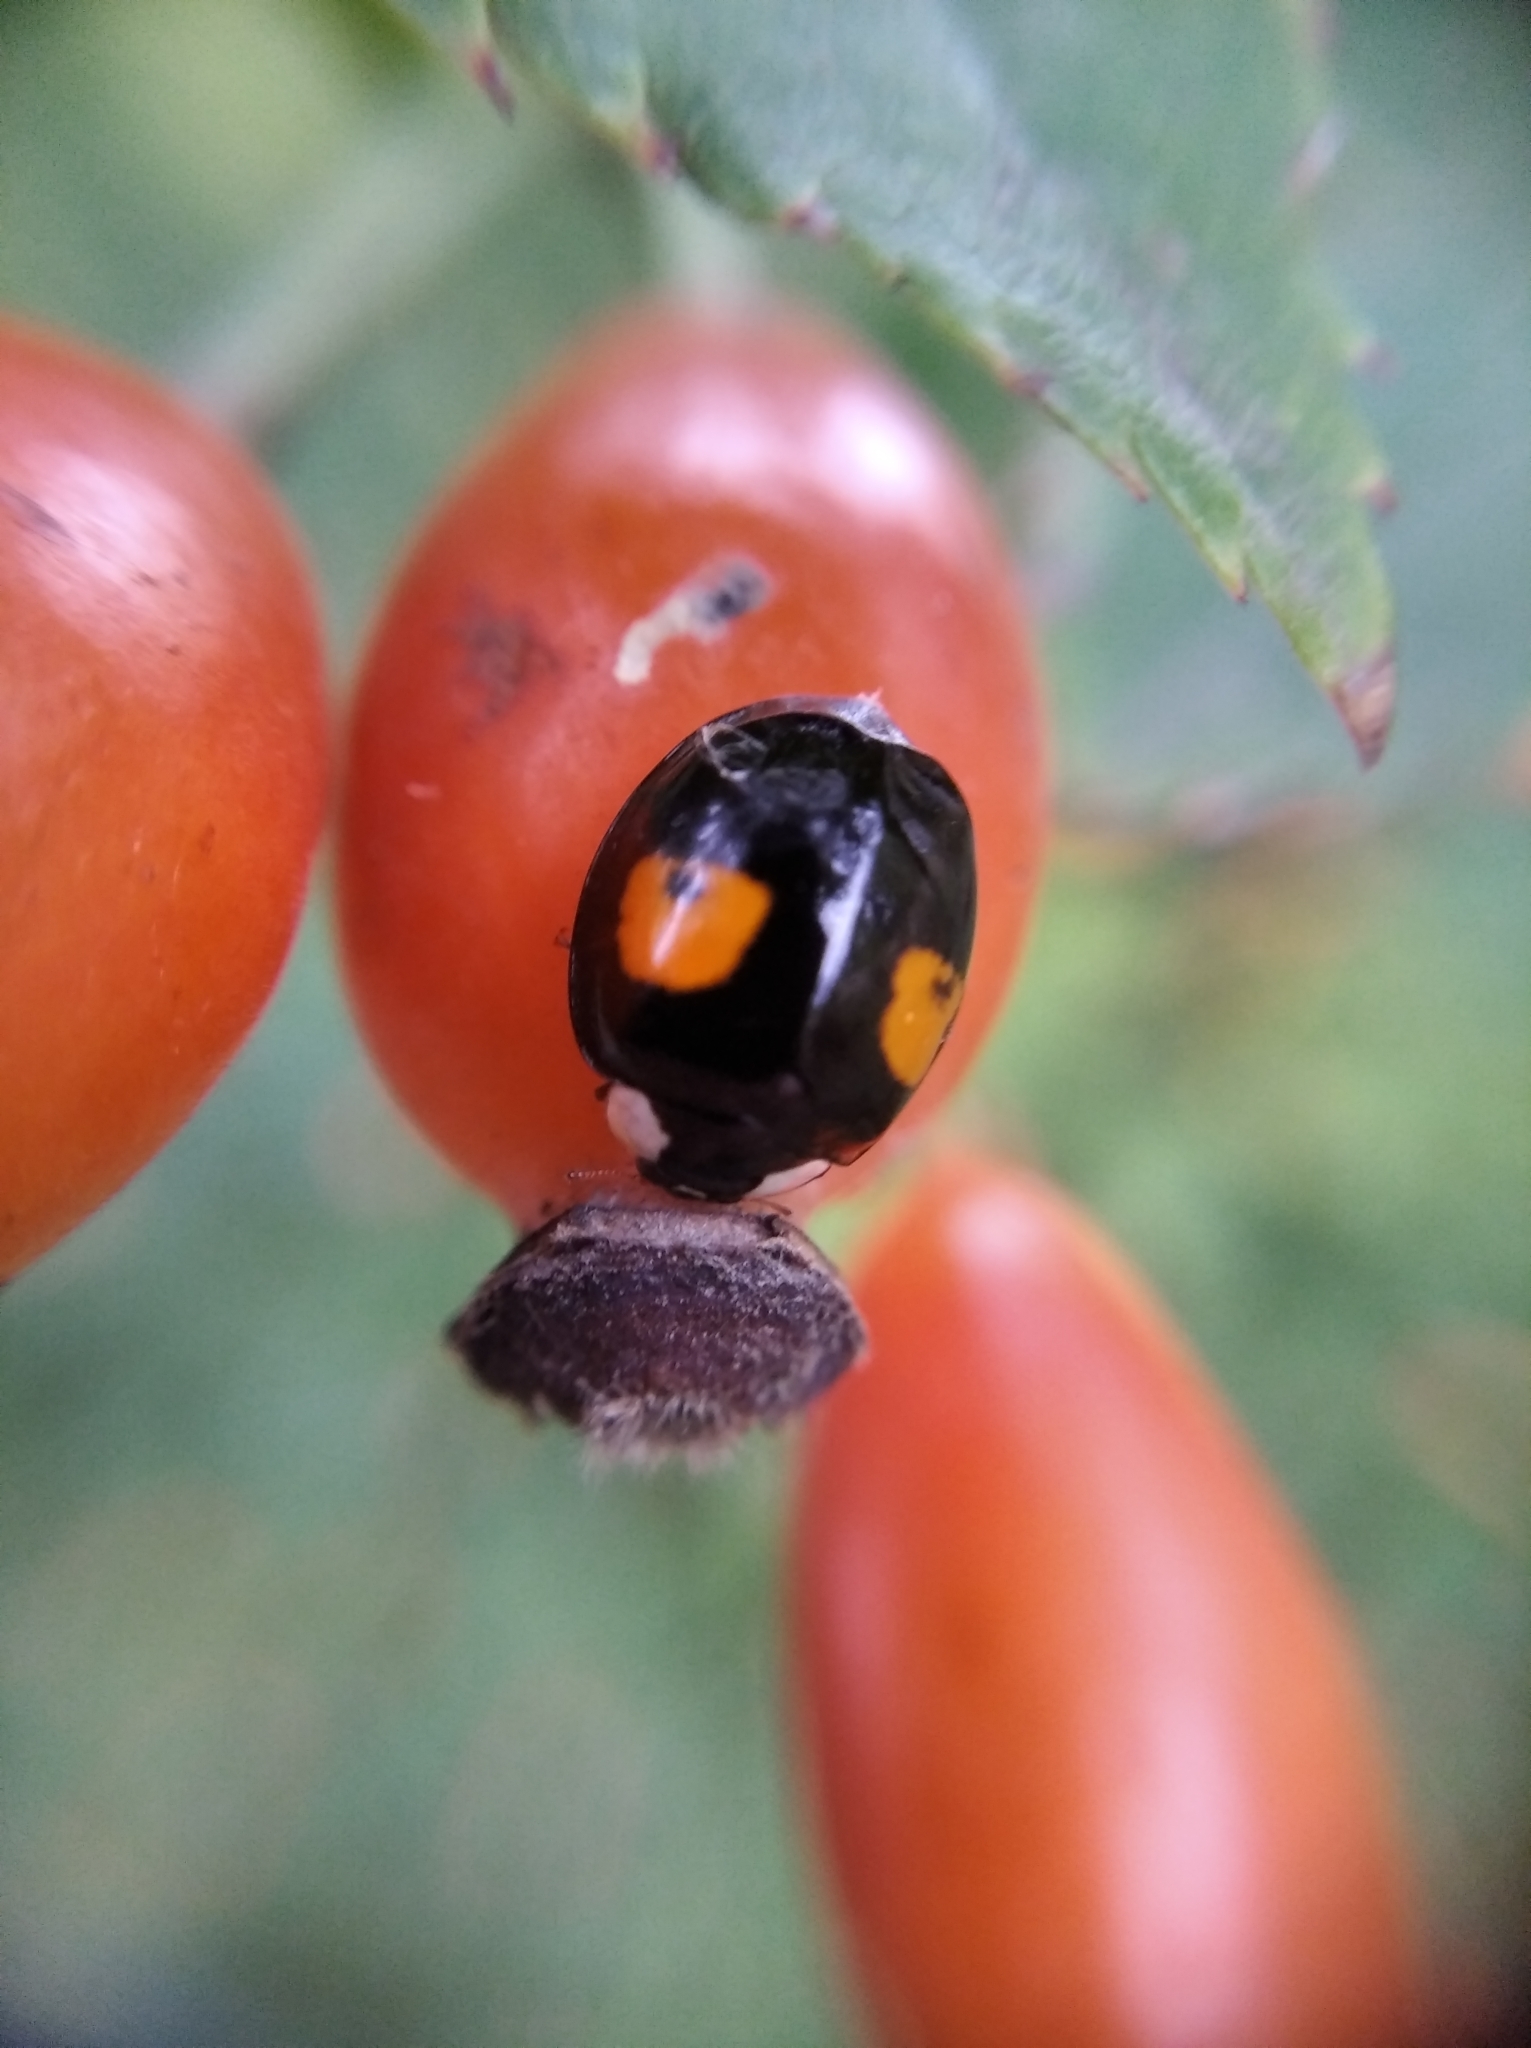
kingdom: Animalia
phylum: Arthropoda
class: Insecta
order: Coleoptera
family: Coccinellidae
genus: Harmonia
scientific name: Harmonia axyridis
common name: Harlequin ladybird
